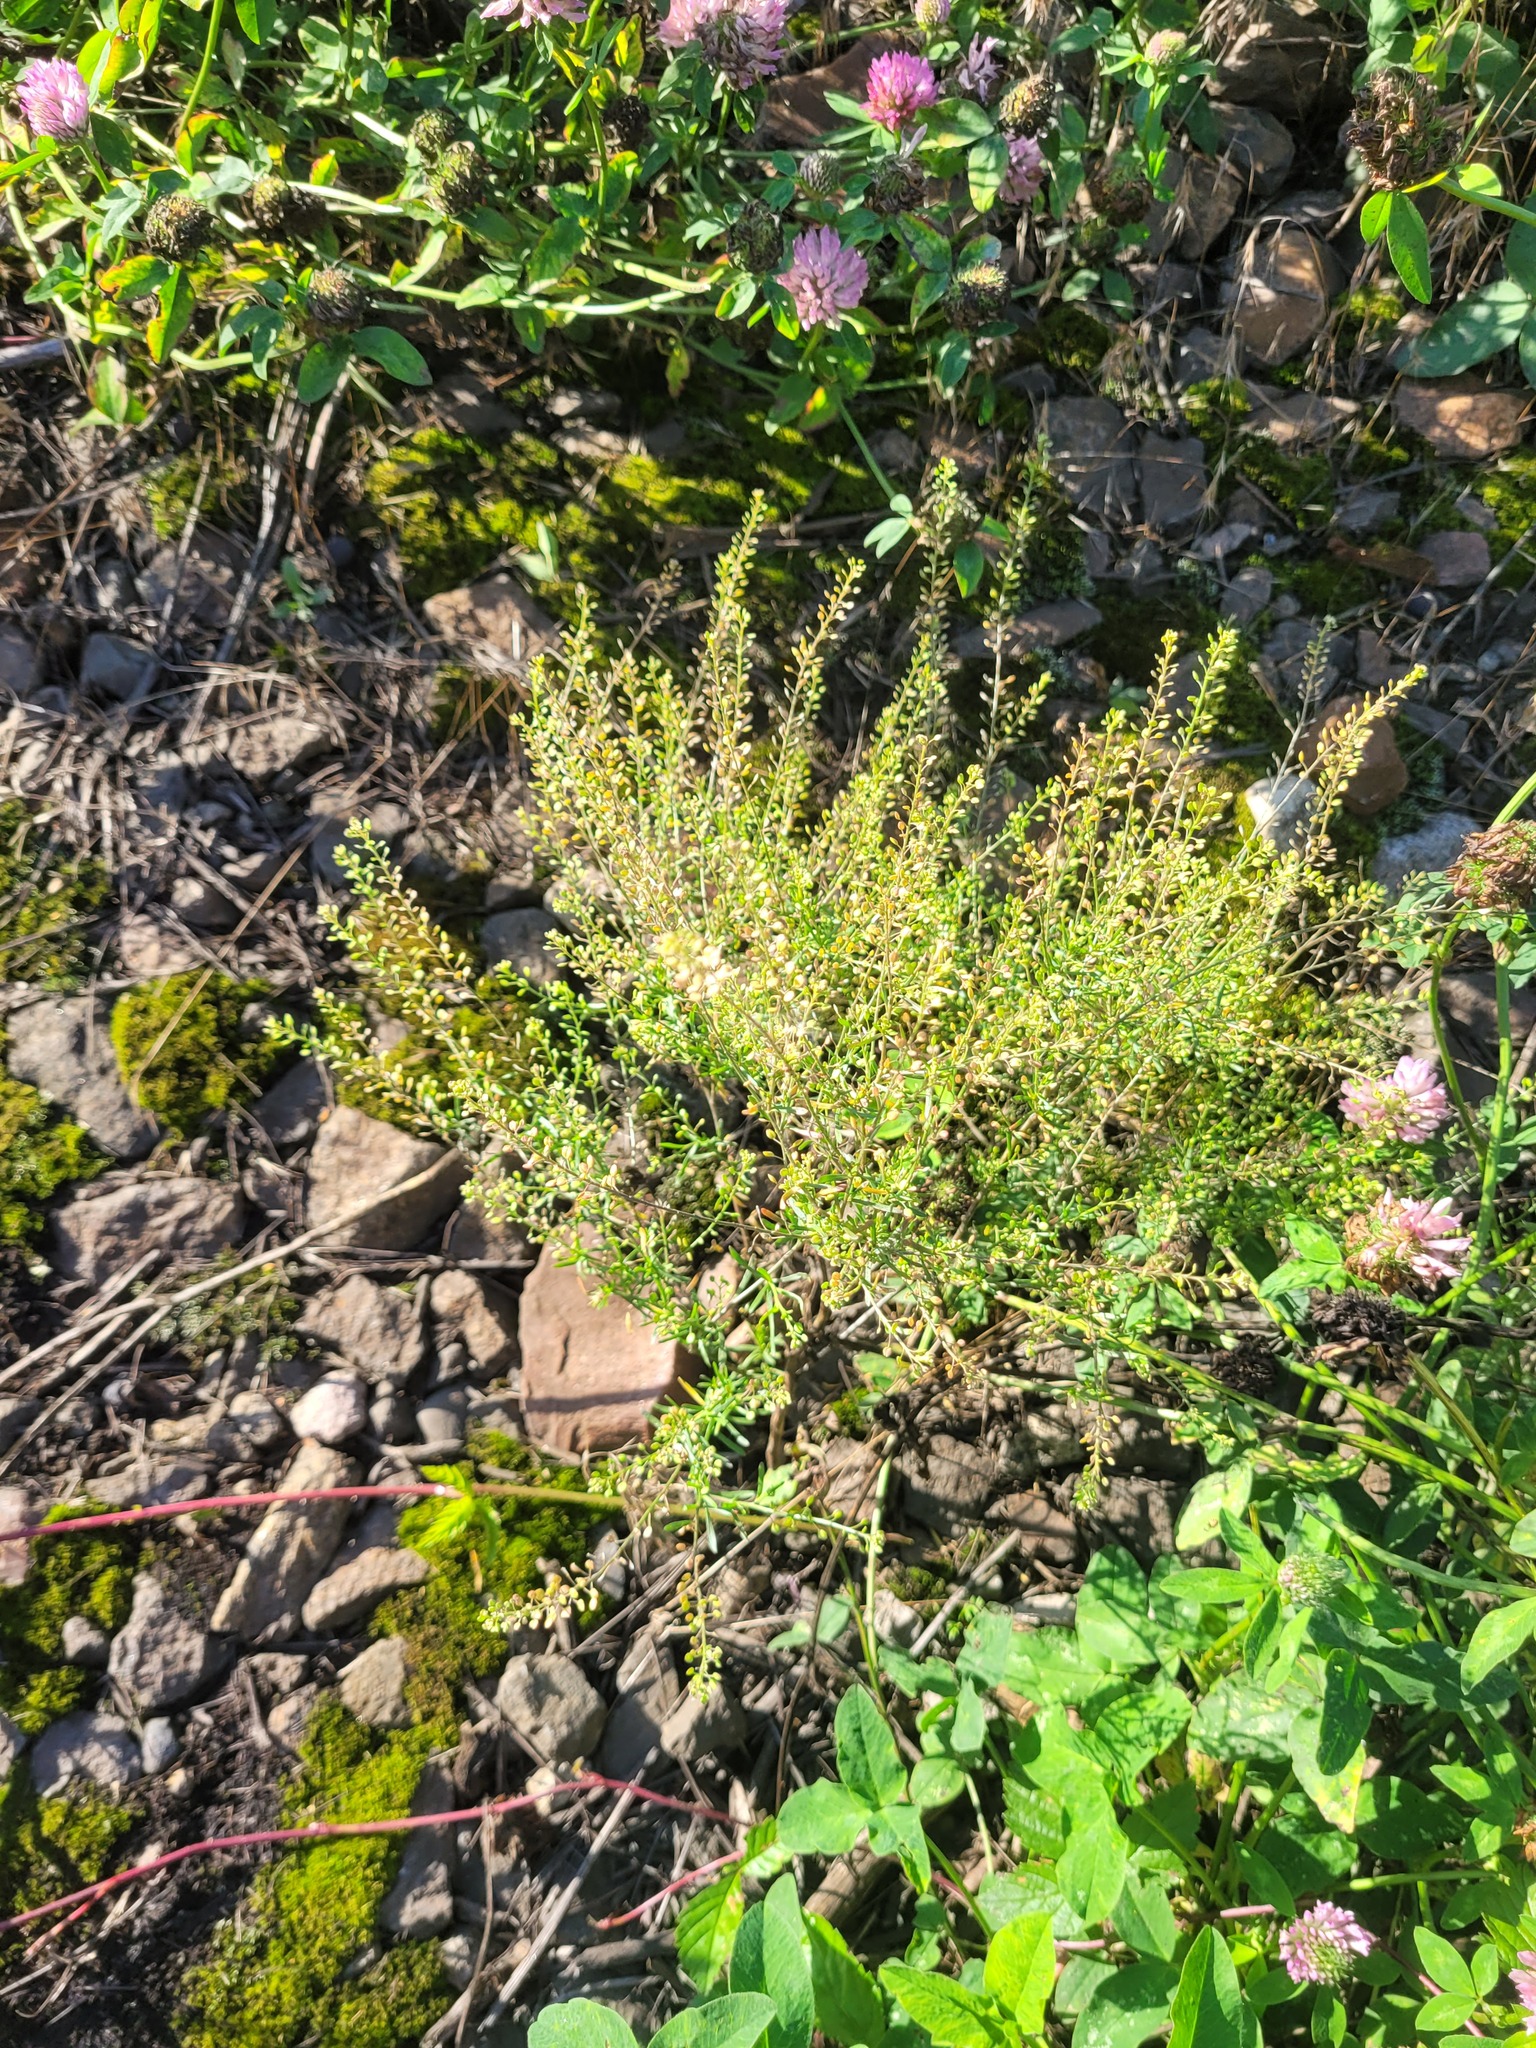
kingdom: Plantae
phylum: Tracheophyta
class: Magnoliopsida
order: Brassicales
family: Brassicaceae
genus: Lepidium
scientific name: Lepidium ruderale
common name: Narrow-leaved pepperwort
